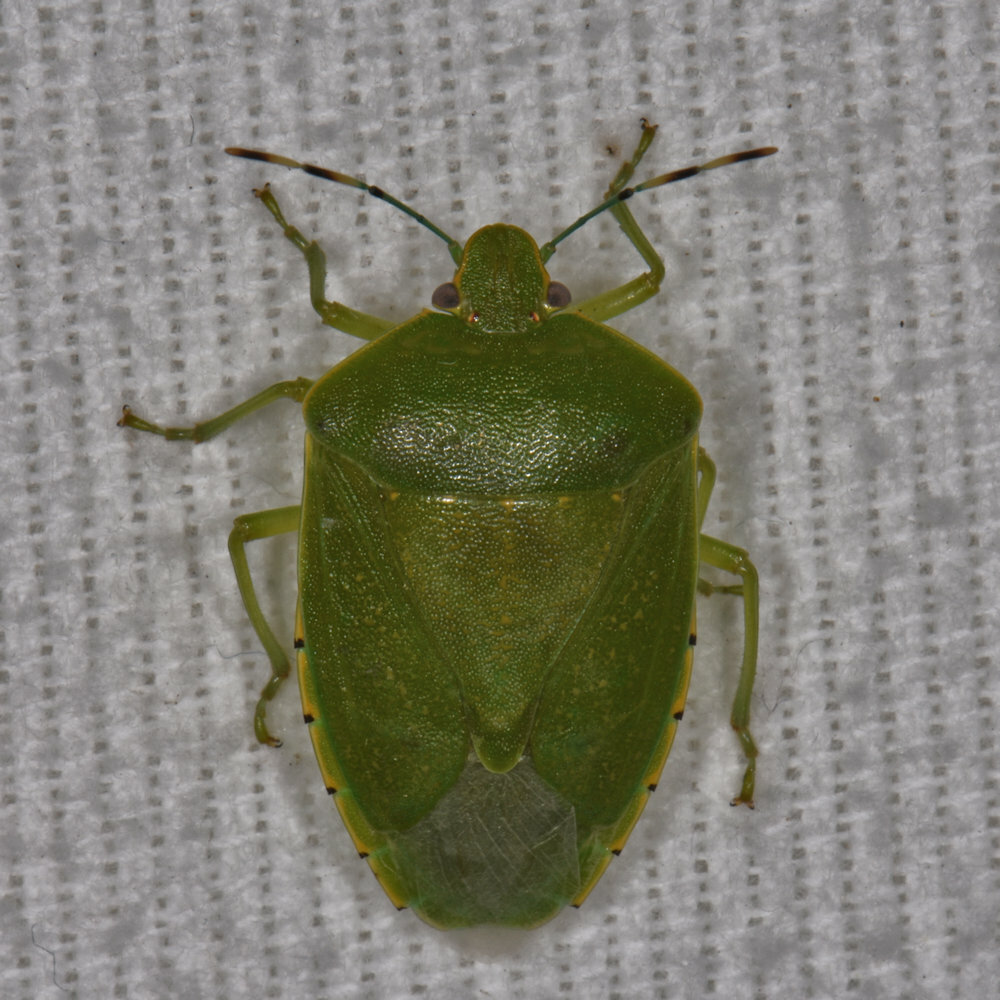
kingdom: Animalia
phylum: Arthropoda
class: Insecta
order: Hemiptera
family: Pentatomidae
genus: Chinavia
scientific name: Chinavia hilaris
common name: Green stink bug
